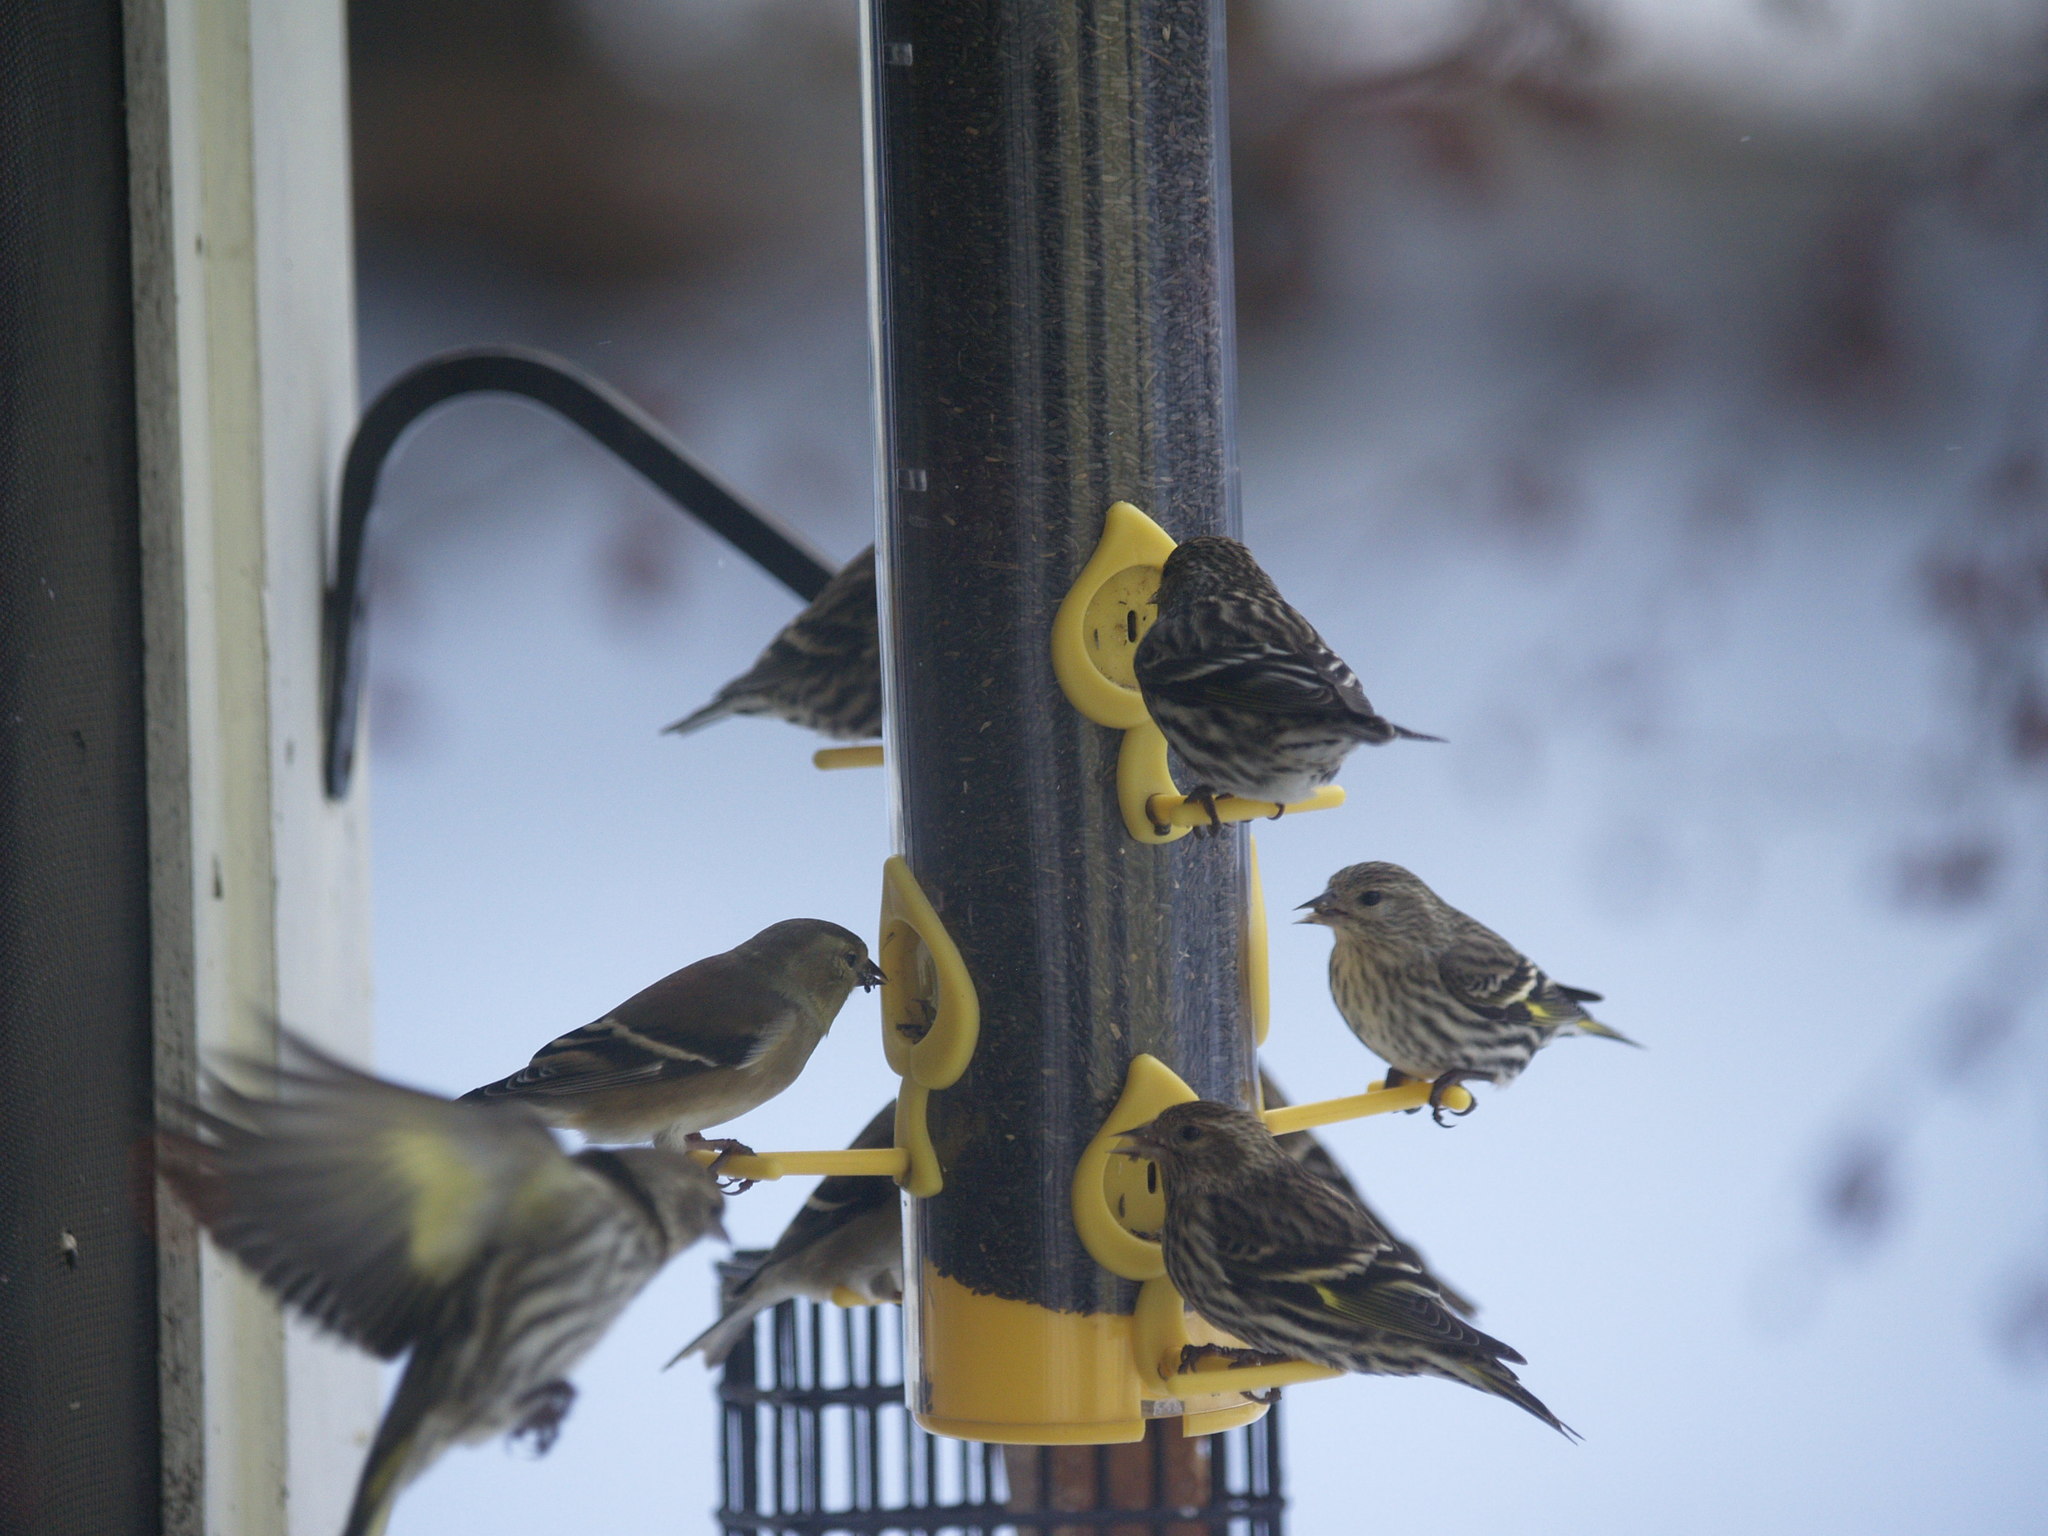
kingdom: Animalia
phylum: Chordata
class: Aves
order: Passeriformes
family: Fringillidae
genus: Spinus
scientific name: Spinus pinus
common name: Pine siskin
